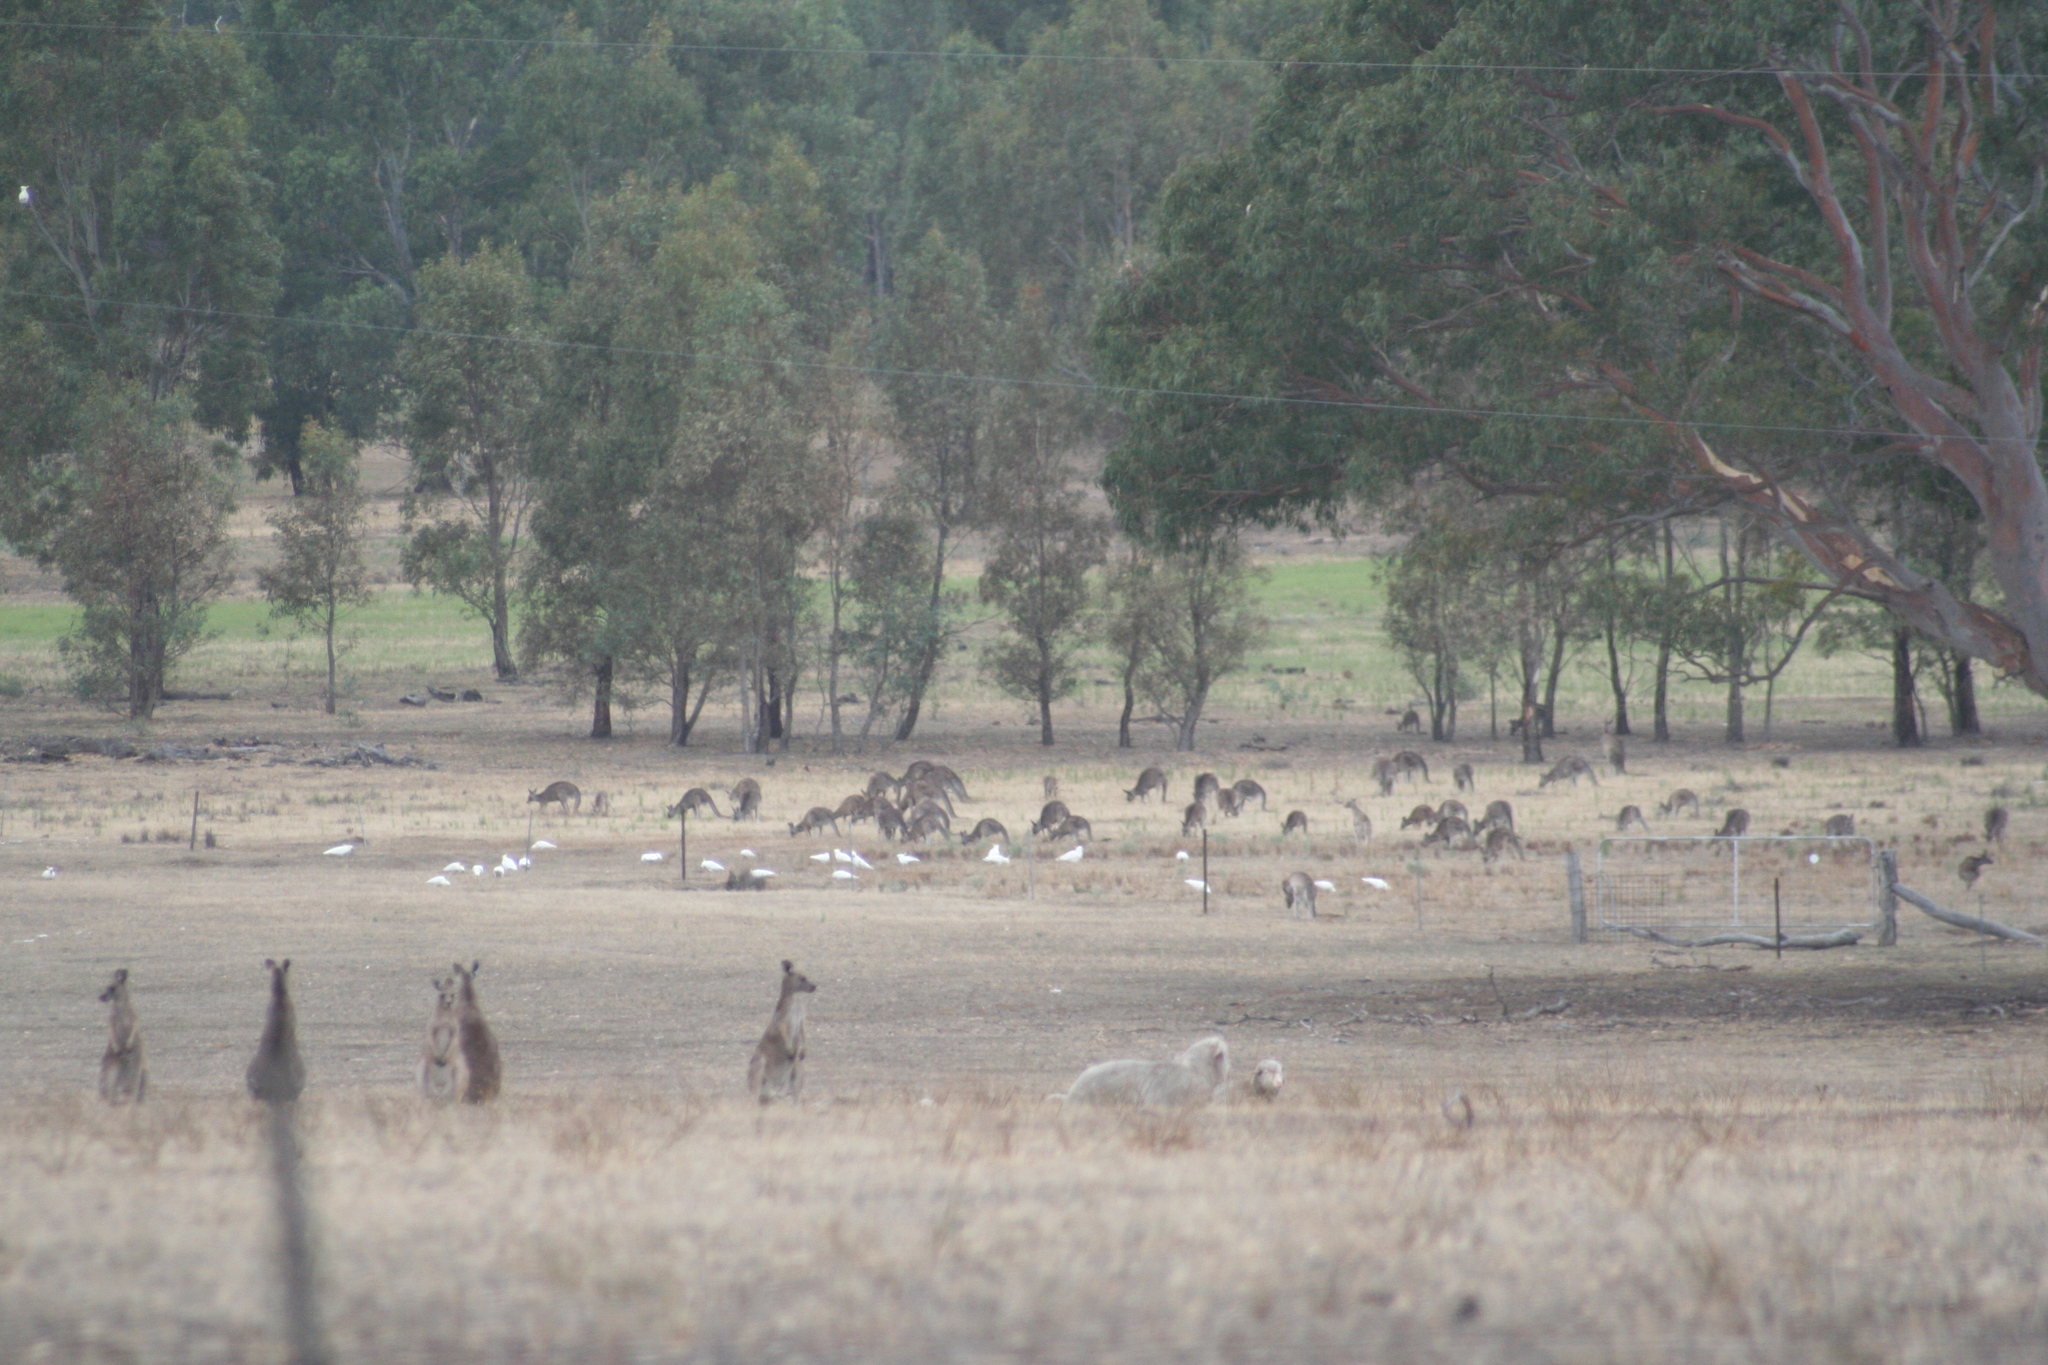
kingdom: Animalia
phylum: Chordata
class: Aves
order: Psittaciformes
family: Psittacidae
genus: Cacatua
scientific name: Cacatua galerita
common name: Sulphur-crested cockatoo
